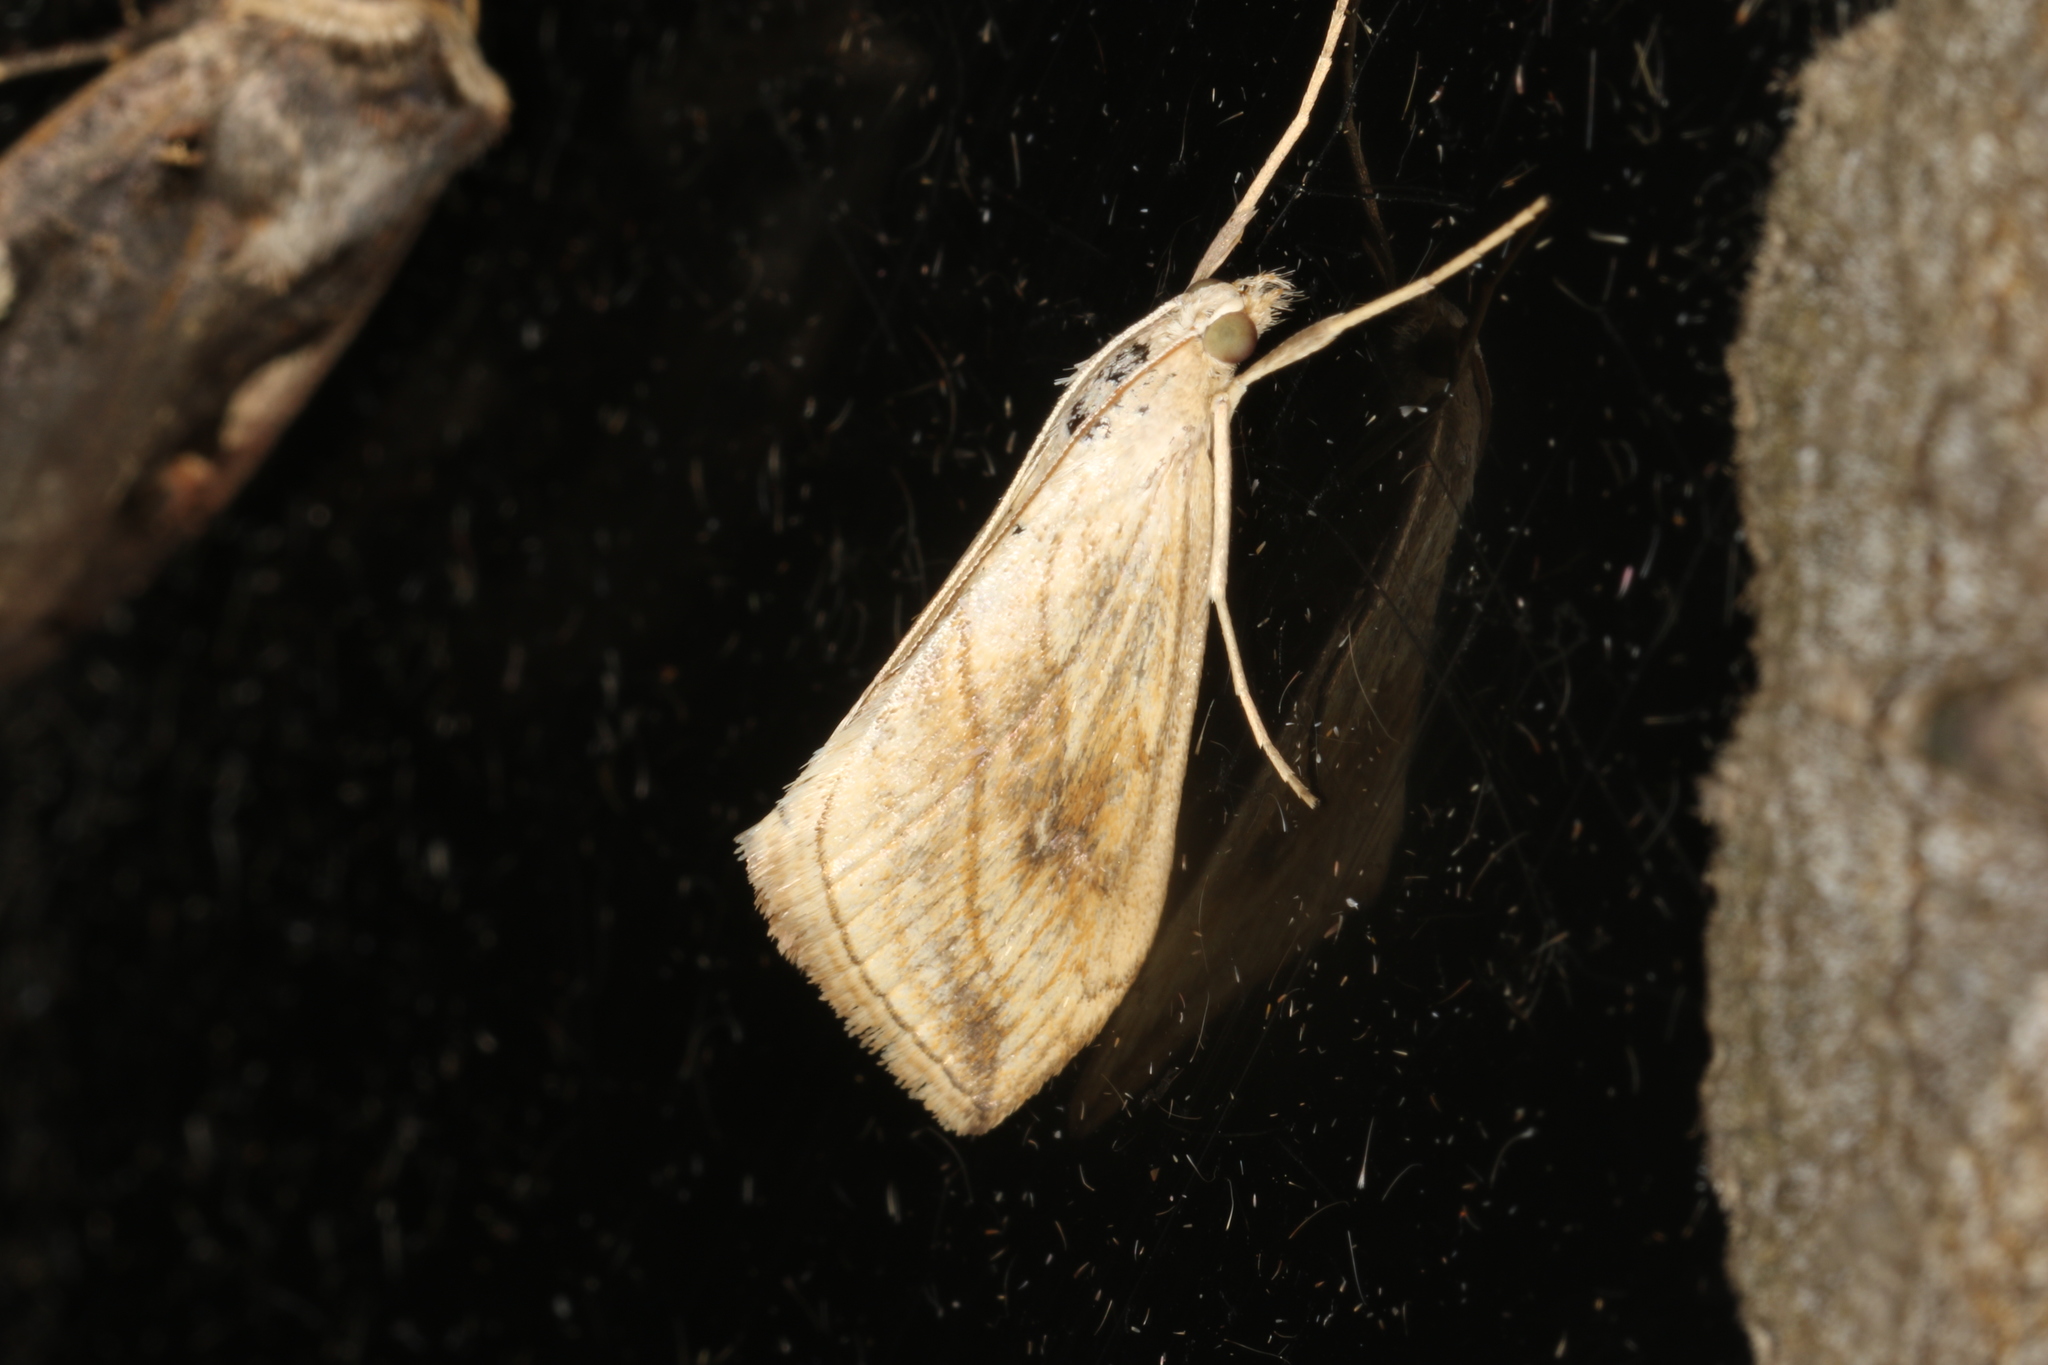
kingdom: Animalia
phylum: Arthropoda
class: Insecta
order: Lepidoptera
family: Crambidae
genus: Evergestis
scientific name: Evergestis forficalis
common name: Garden pebble
